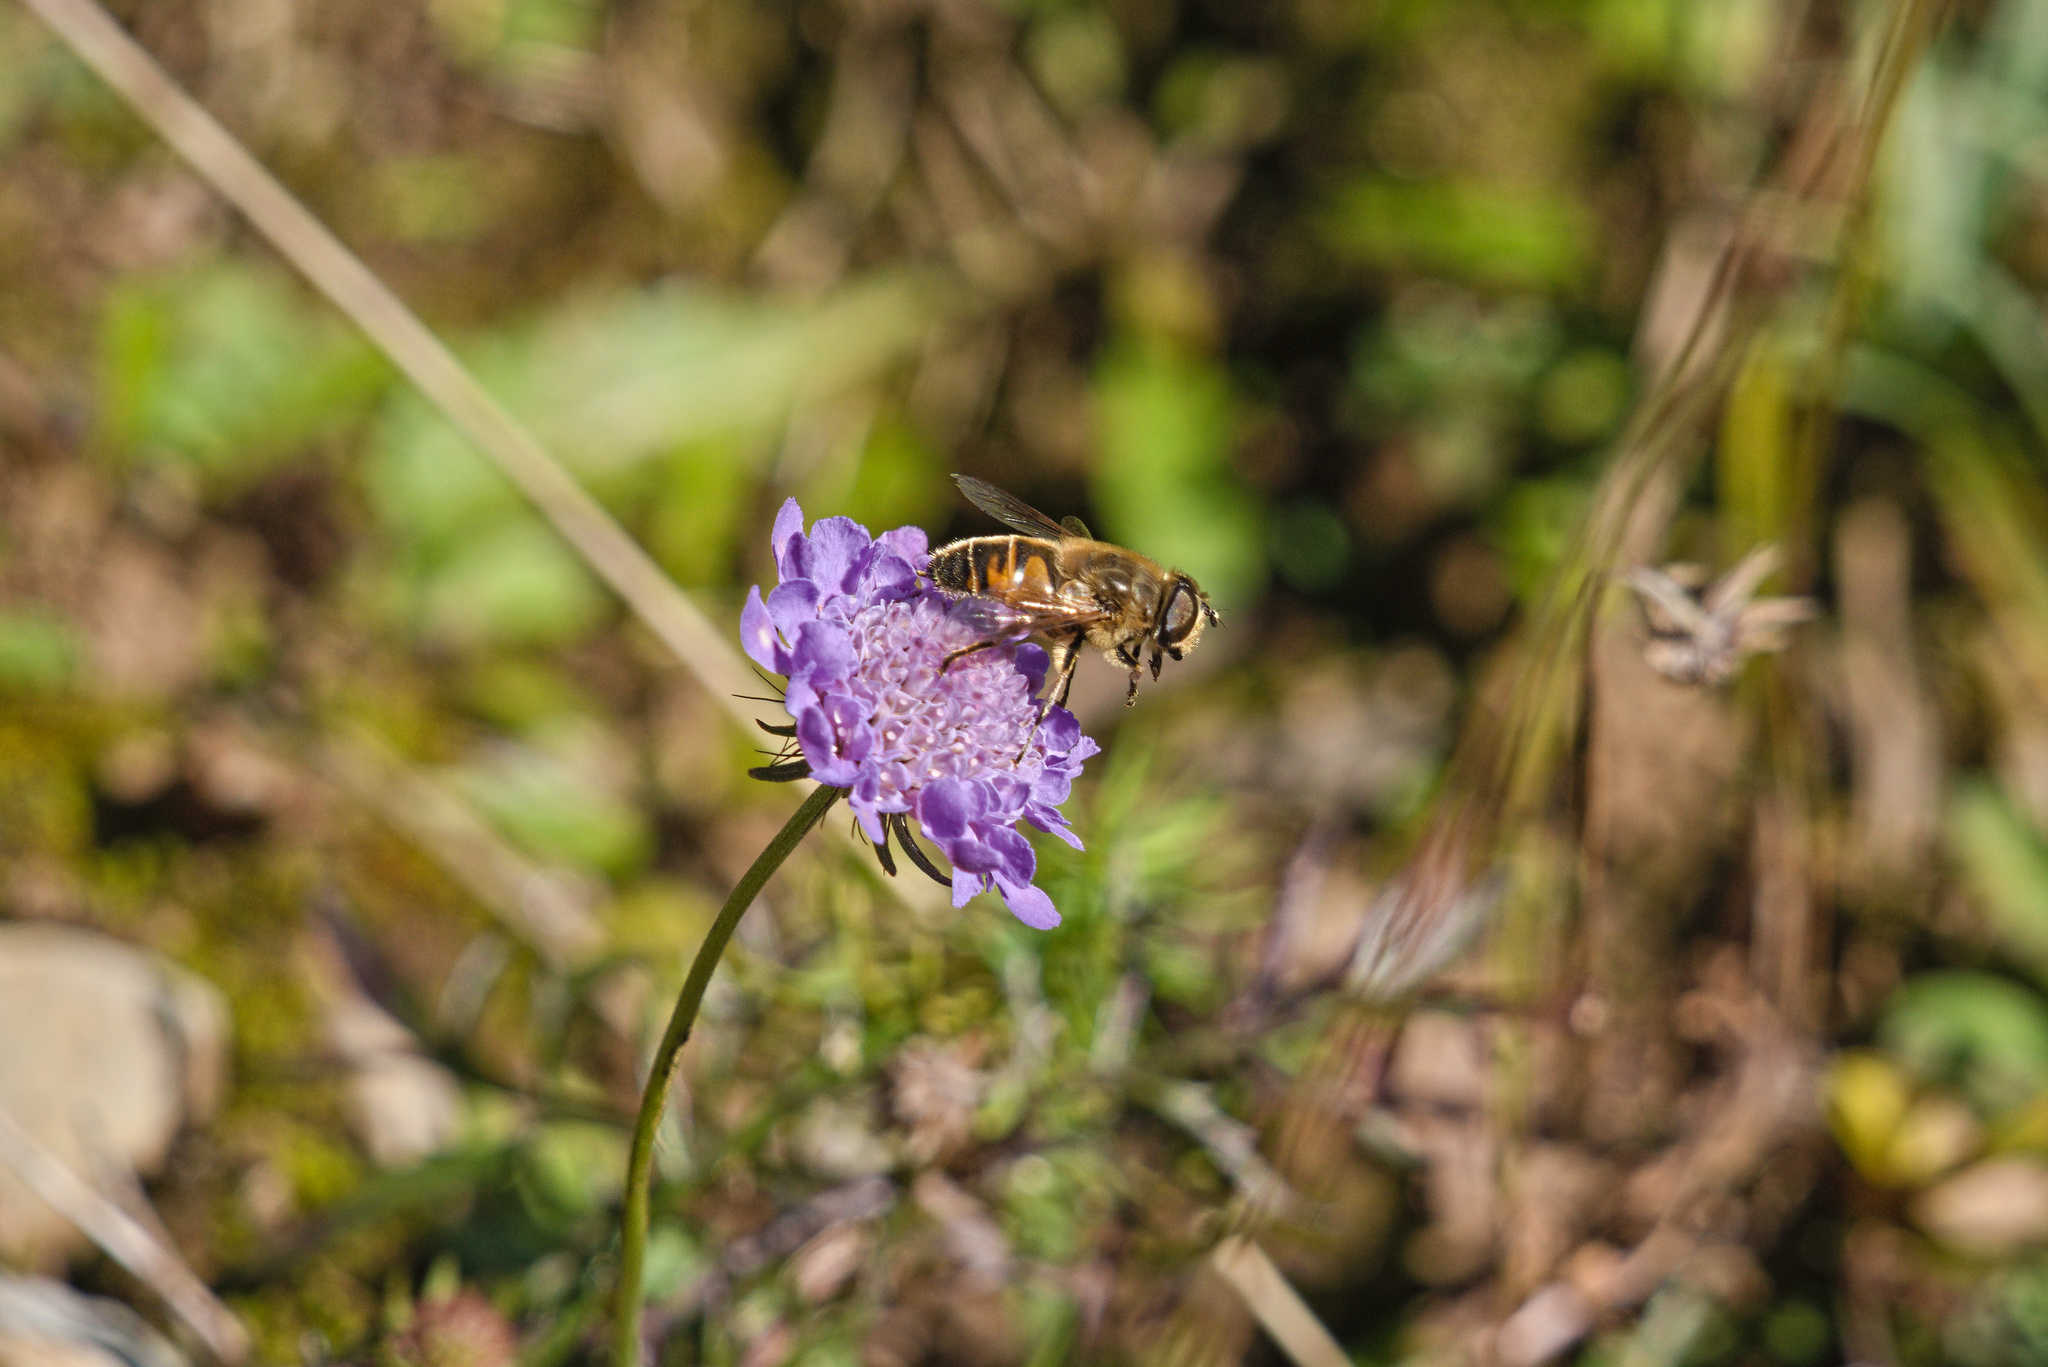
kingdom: Animalia
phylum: Arthropoda
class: Insecta
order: Diptera
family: Syrphidae
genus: Eristalis
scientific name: Eristalis tenax
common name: Drone fly
